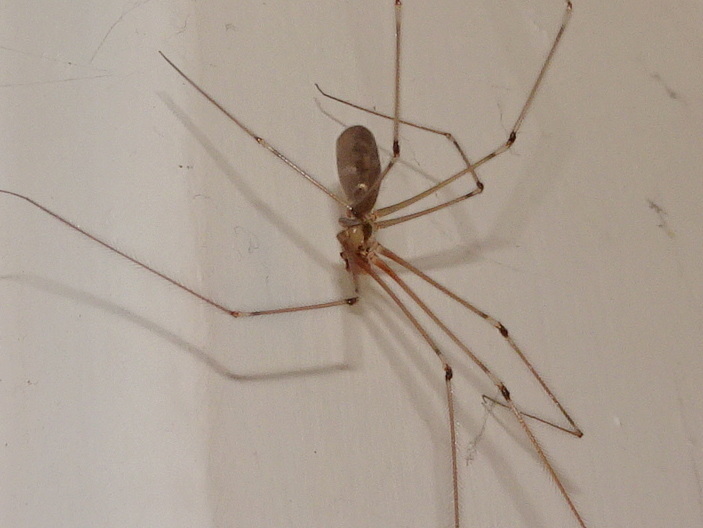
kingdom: Animalia
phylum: Arthropoda
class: Arachnida
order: Araneae
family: Pholcidae
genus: Pholcus
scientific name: Pholcus phalangioides
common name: Longbodied cellar spider
